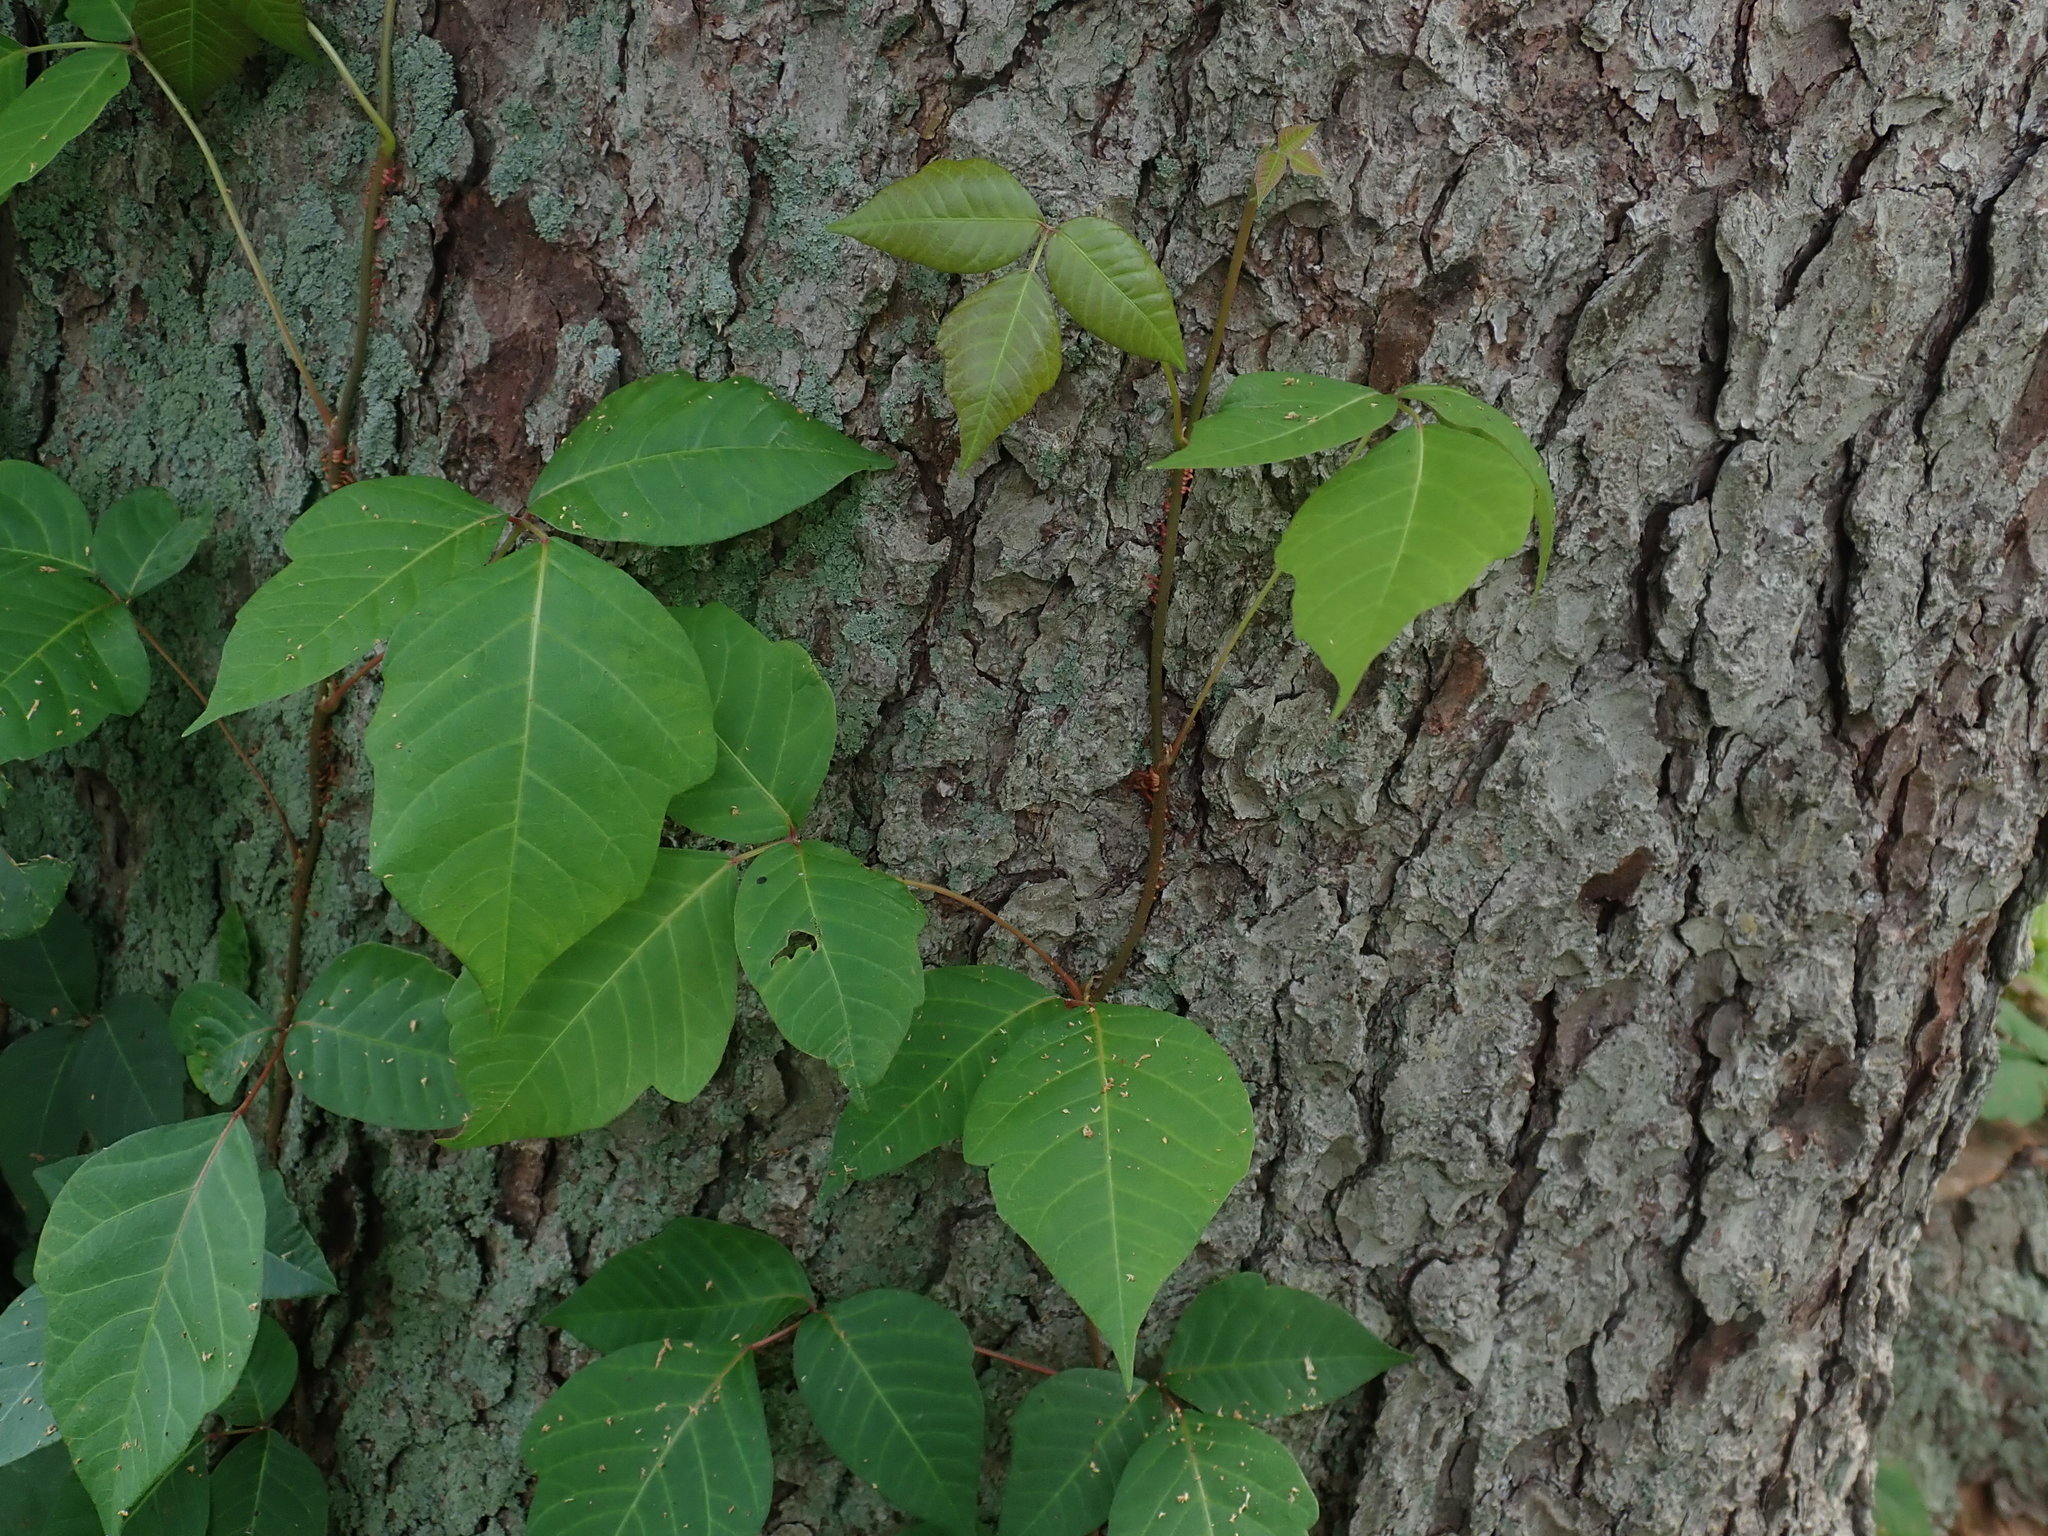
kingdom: Plantae
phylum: Tracheophyta
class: Magnoliopsida
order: Sapindales
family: Anacardiaceae
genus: Toxicodendron
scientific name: Toxicodendron radicans
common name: Poison ivy
